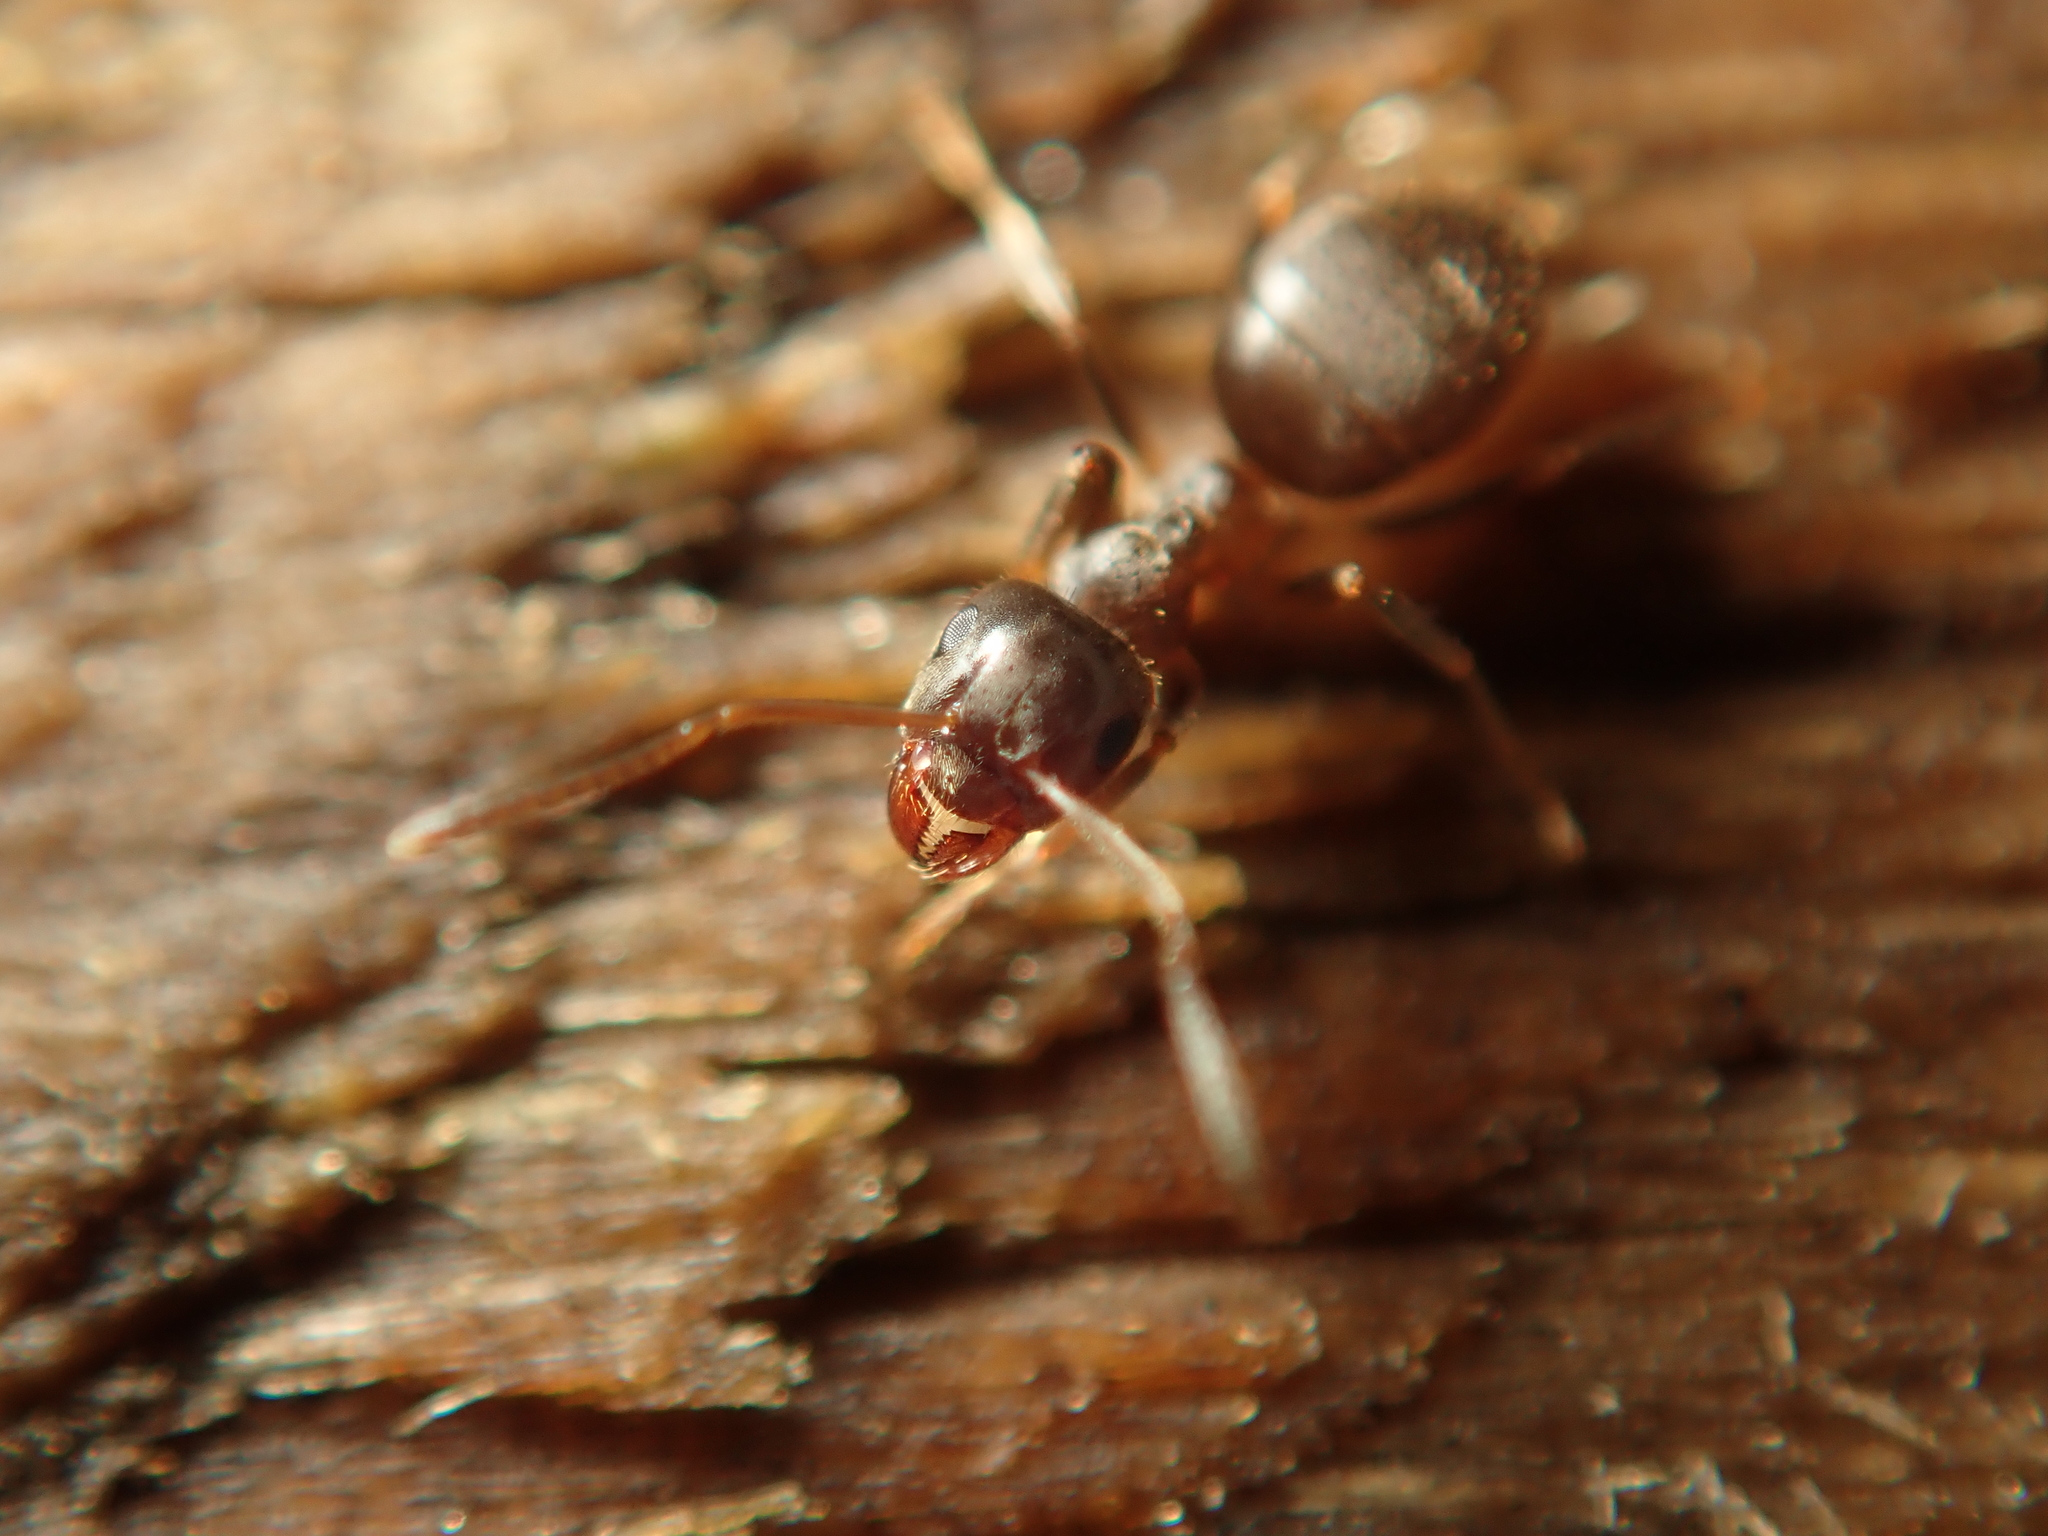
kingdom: Animalia
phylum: Arthropoda
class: Insecta
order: Hymenoptera
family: Formicidae
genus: Lasius
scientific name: Lasius niger
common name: Small black ant
